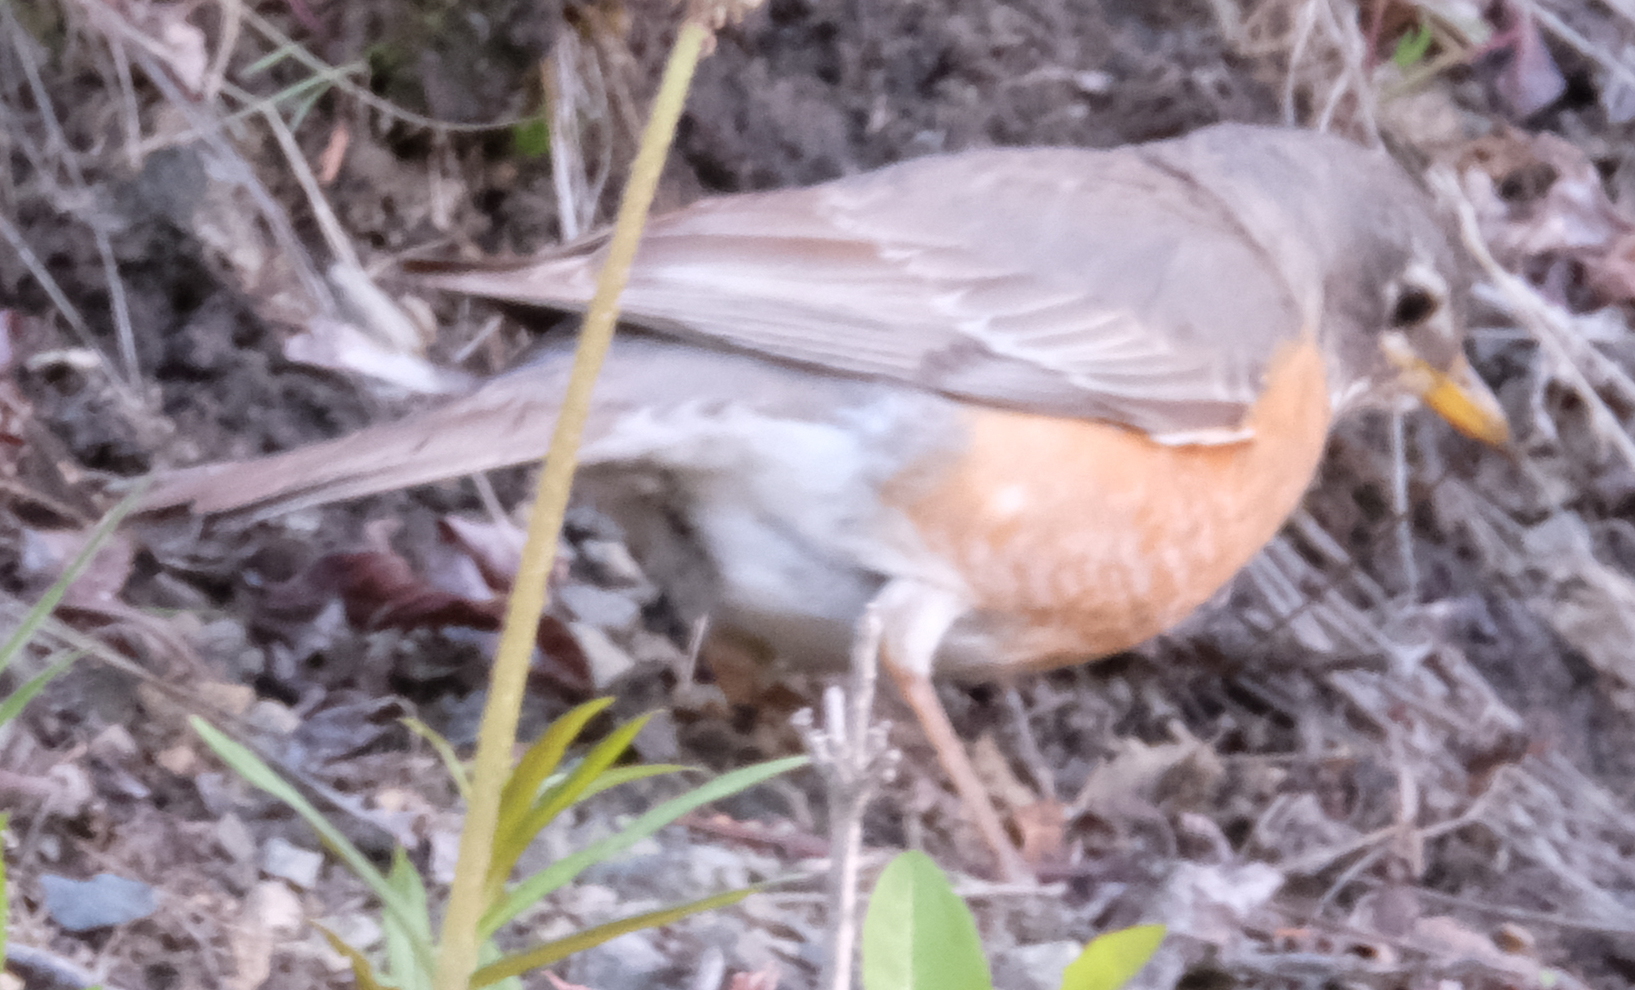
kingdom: Animalia
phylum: Chordata
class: Aves
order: Passeriformes
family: Turdidae
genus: Turdus
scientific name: Turdus migratorius
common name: American robin
